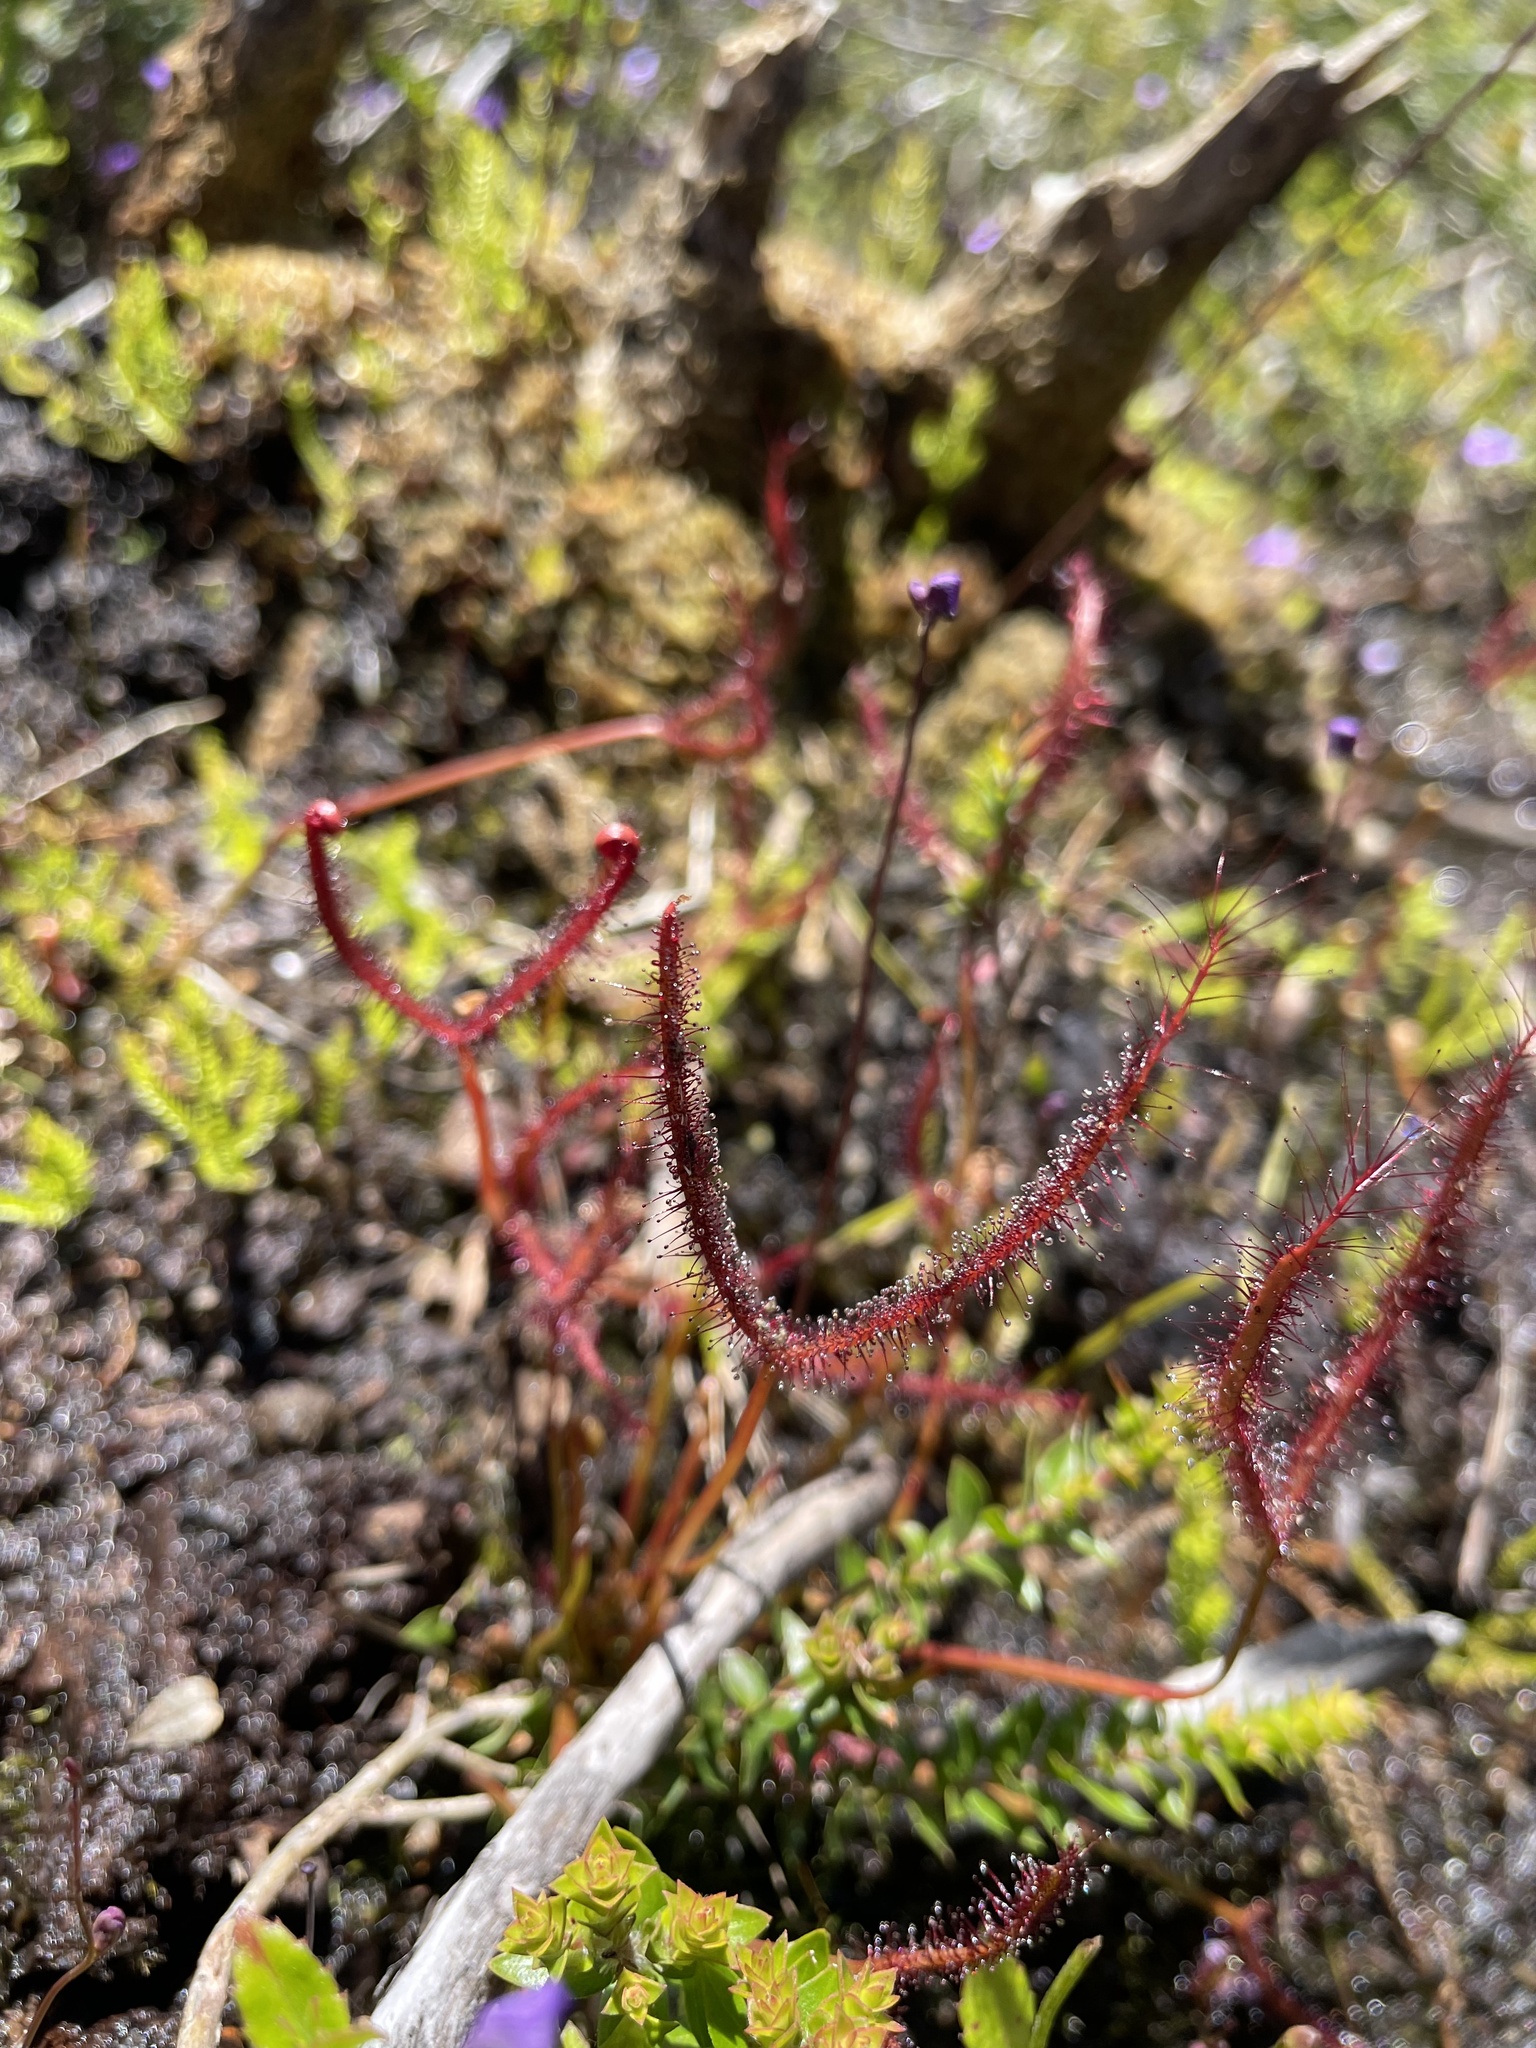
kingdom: Plantae
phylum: Tracheophyta
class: Magnoliopsida
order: Caryophyllales
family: Droseraceae
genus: Drosera
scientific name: Drosera binata
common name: Forked sundew
